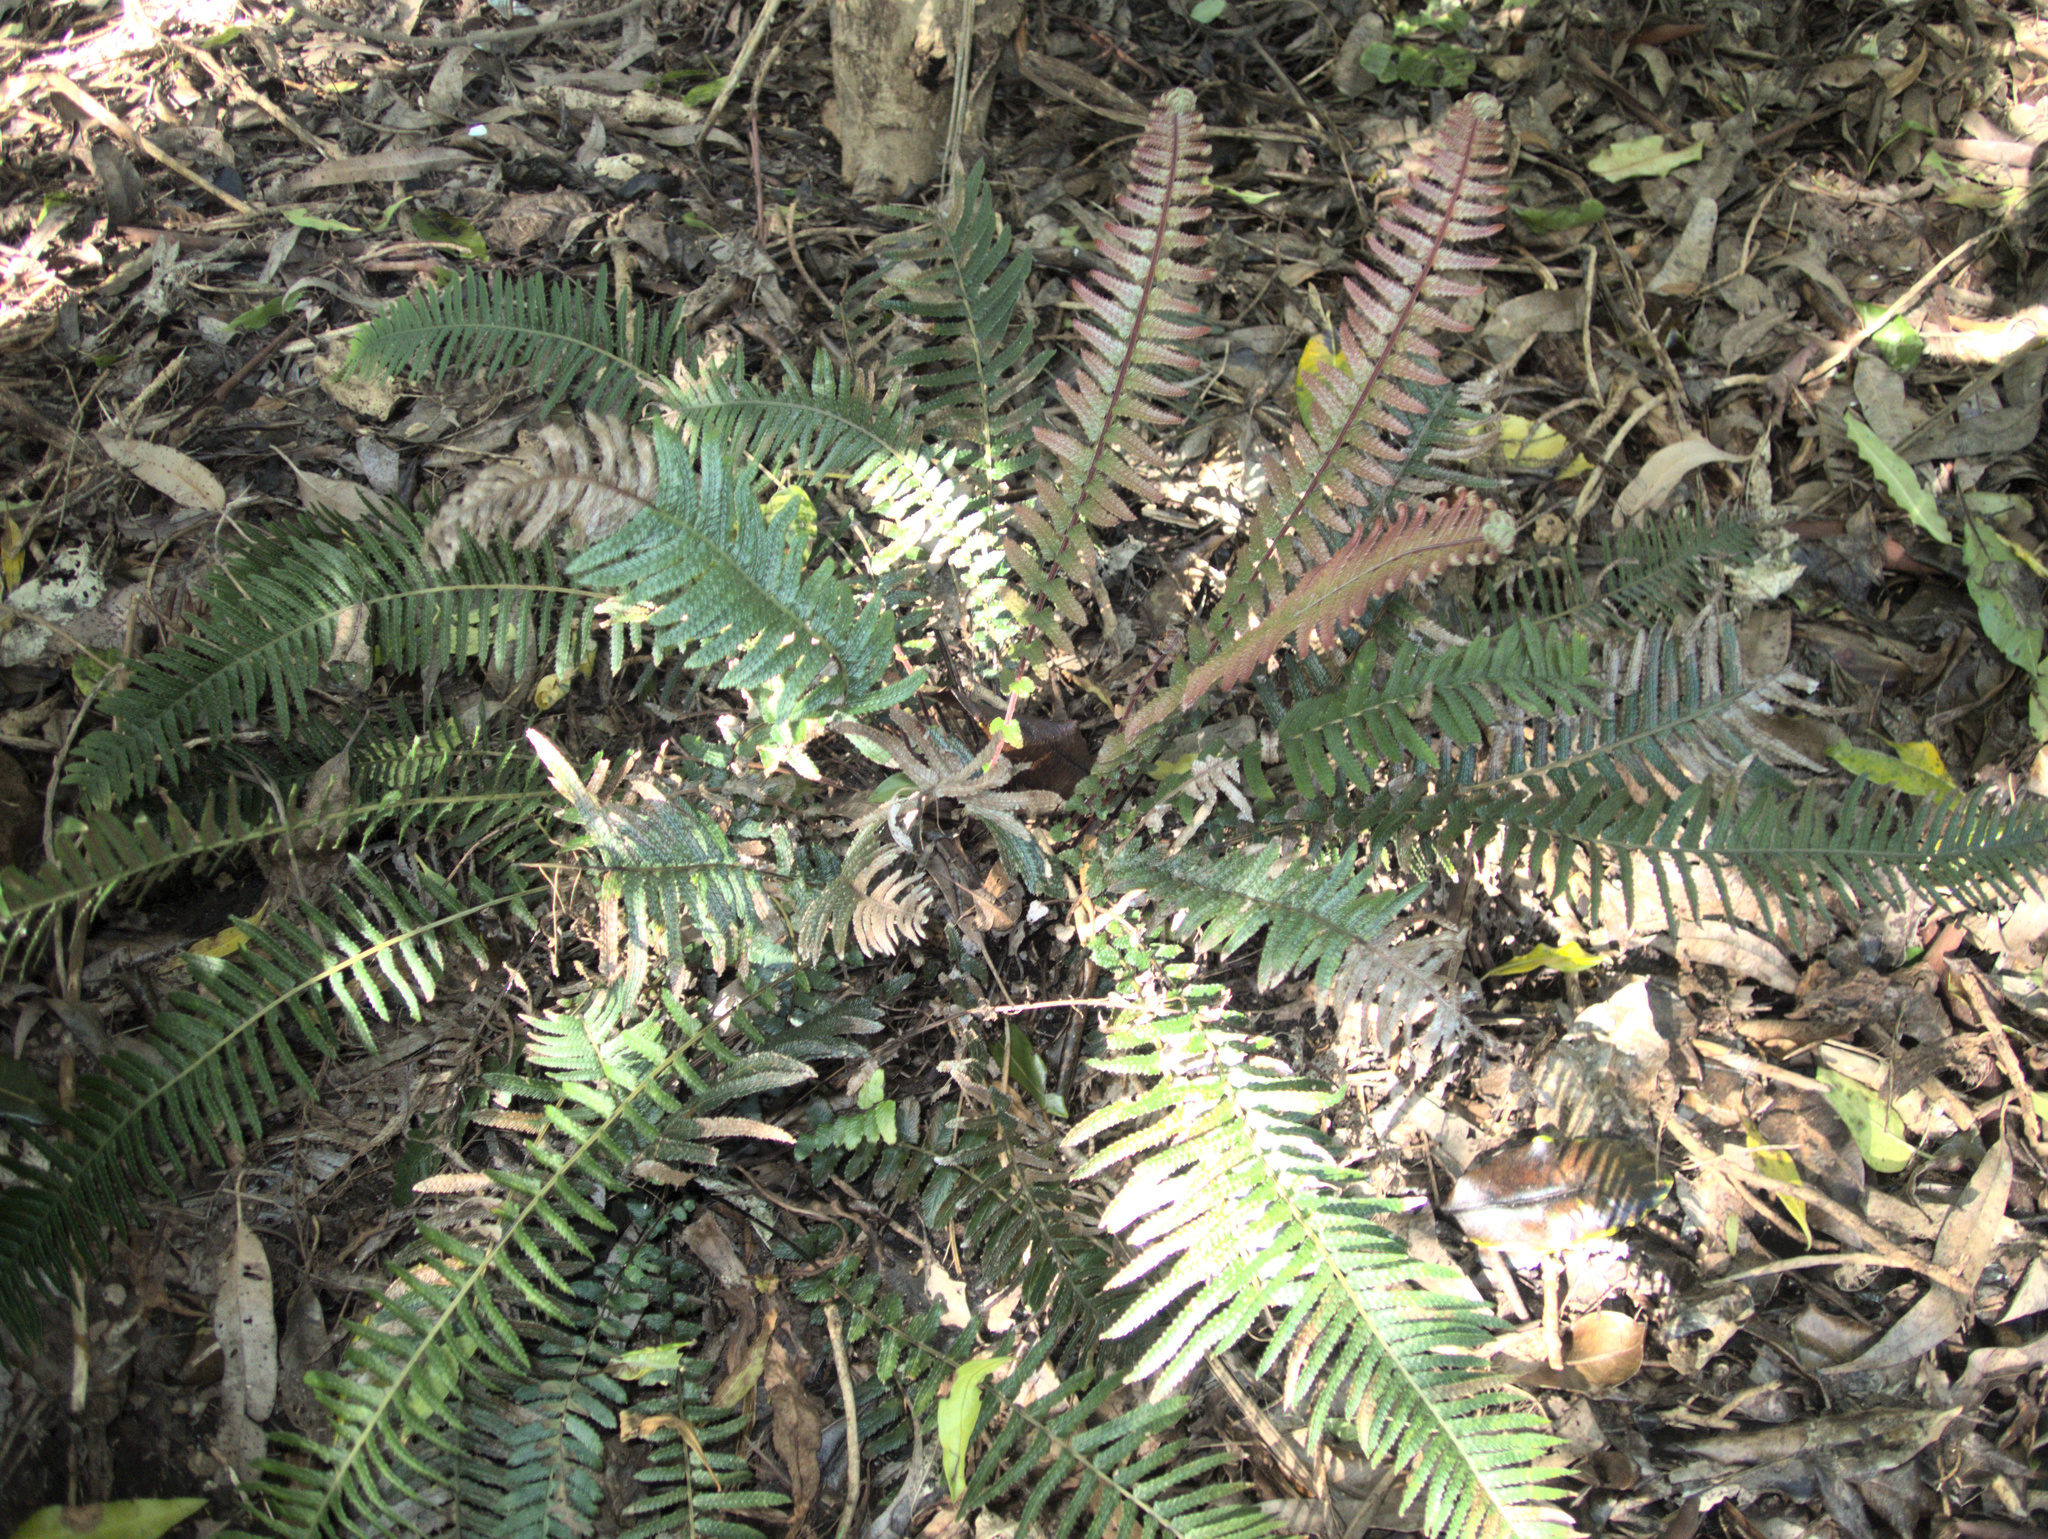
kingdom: Plantae
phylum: Tracheophyta
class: Polypodiopsida
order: Polypodiales
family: Blechnaceae
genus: Doodia
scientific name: Doodia australis
